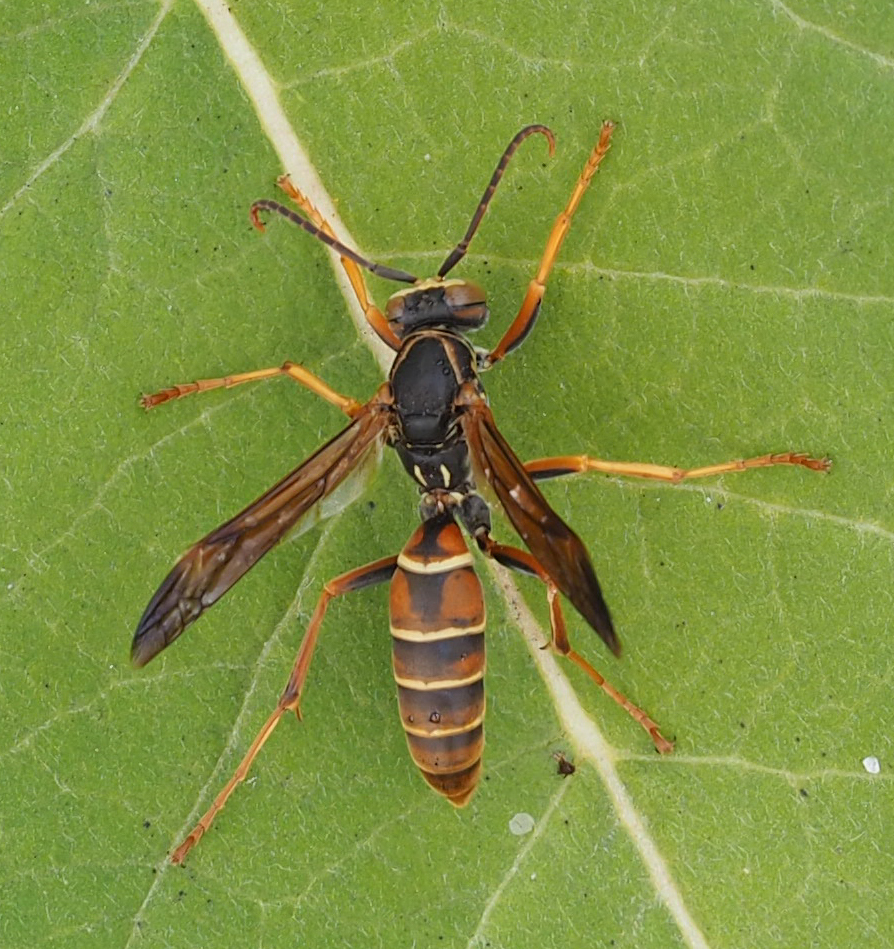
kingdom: Animalia
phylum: Arthropoda
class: Insecta
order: Hymenoptera
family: Eumenidae
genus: Polistes
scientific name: Polistes bellicosus
